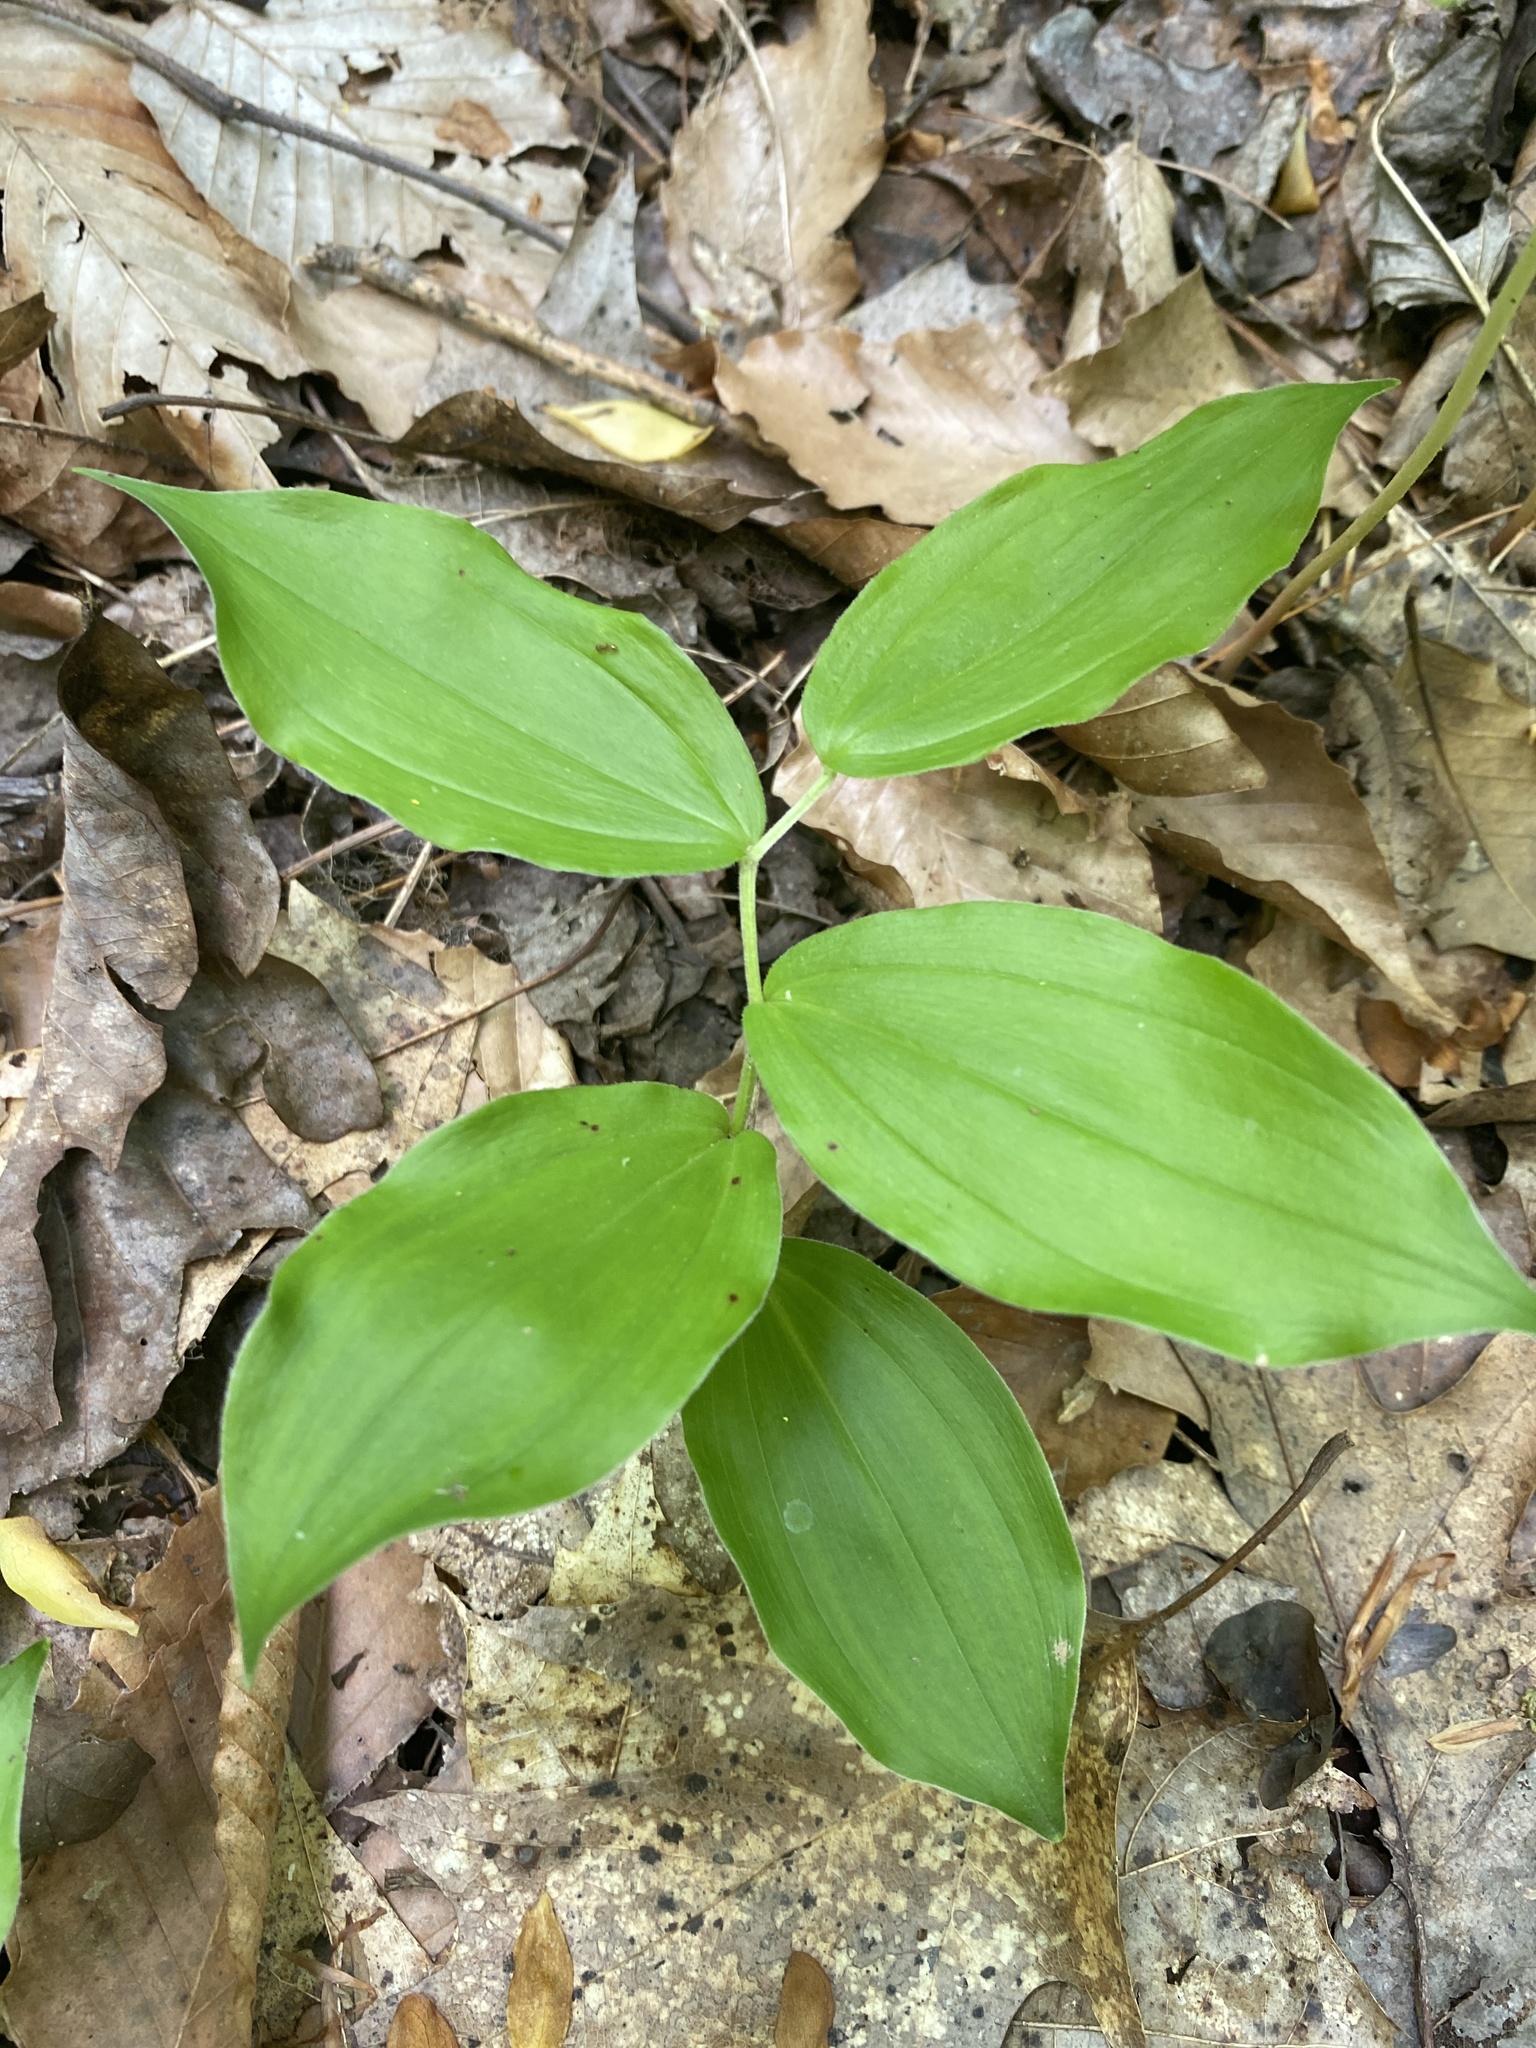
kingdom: Plantae
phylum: Tracheophyta
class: Liliopsida
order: Asparagales
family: Asparagaceae
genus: Maianthemum
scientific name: Maianthemum racemosum
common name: False spikenard
